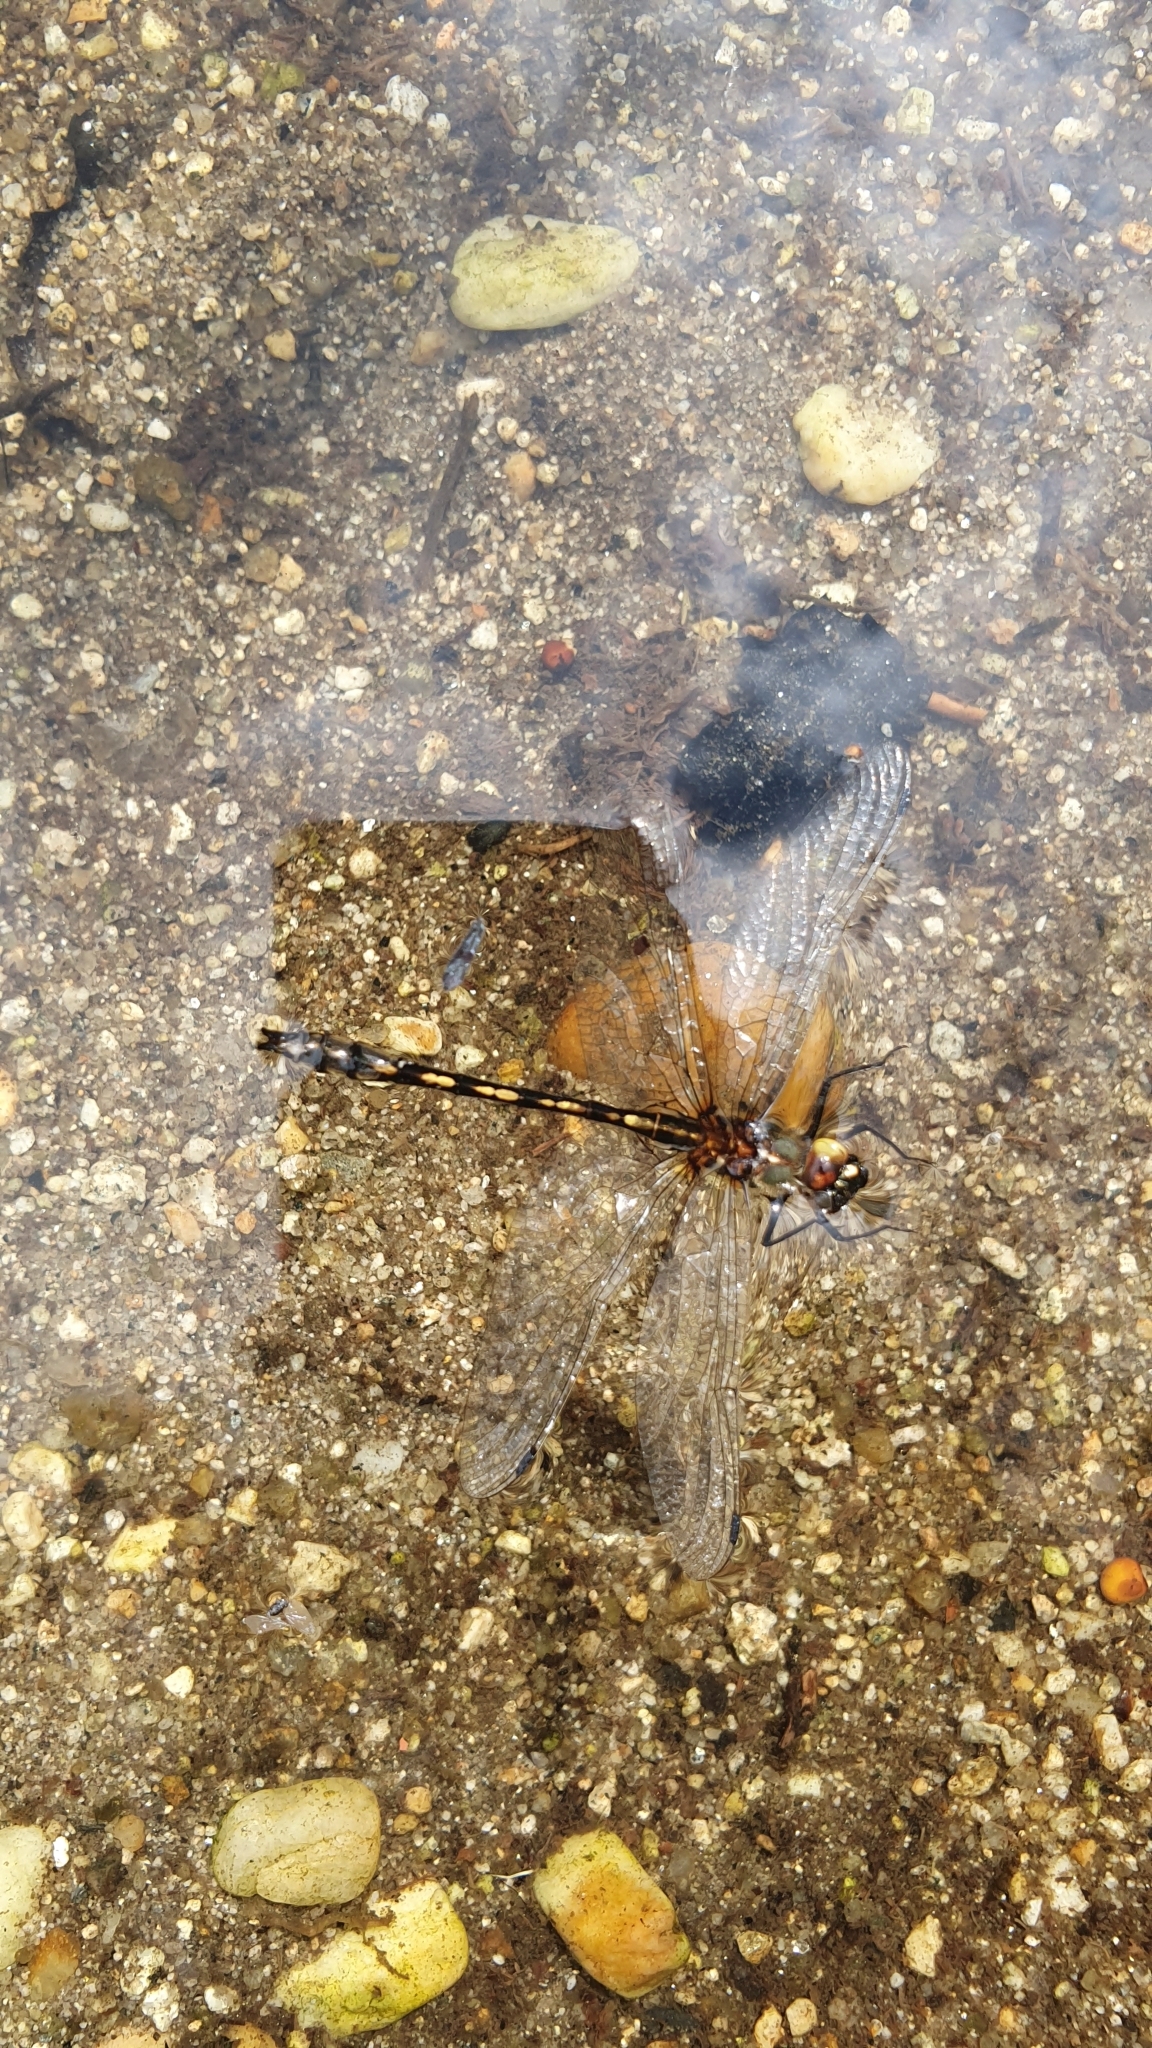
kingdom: Animalia
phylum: Arthropoda
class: Insecta
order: Odonata
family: Corduliidae
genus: Oxygastra
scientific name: Oxygastra curtisii
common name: Orange-spotted emerald
